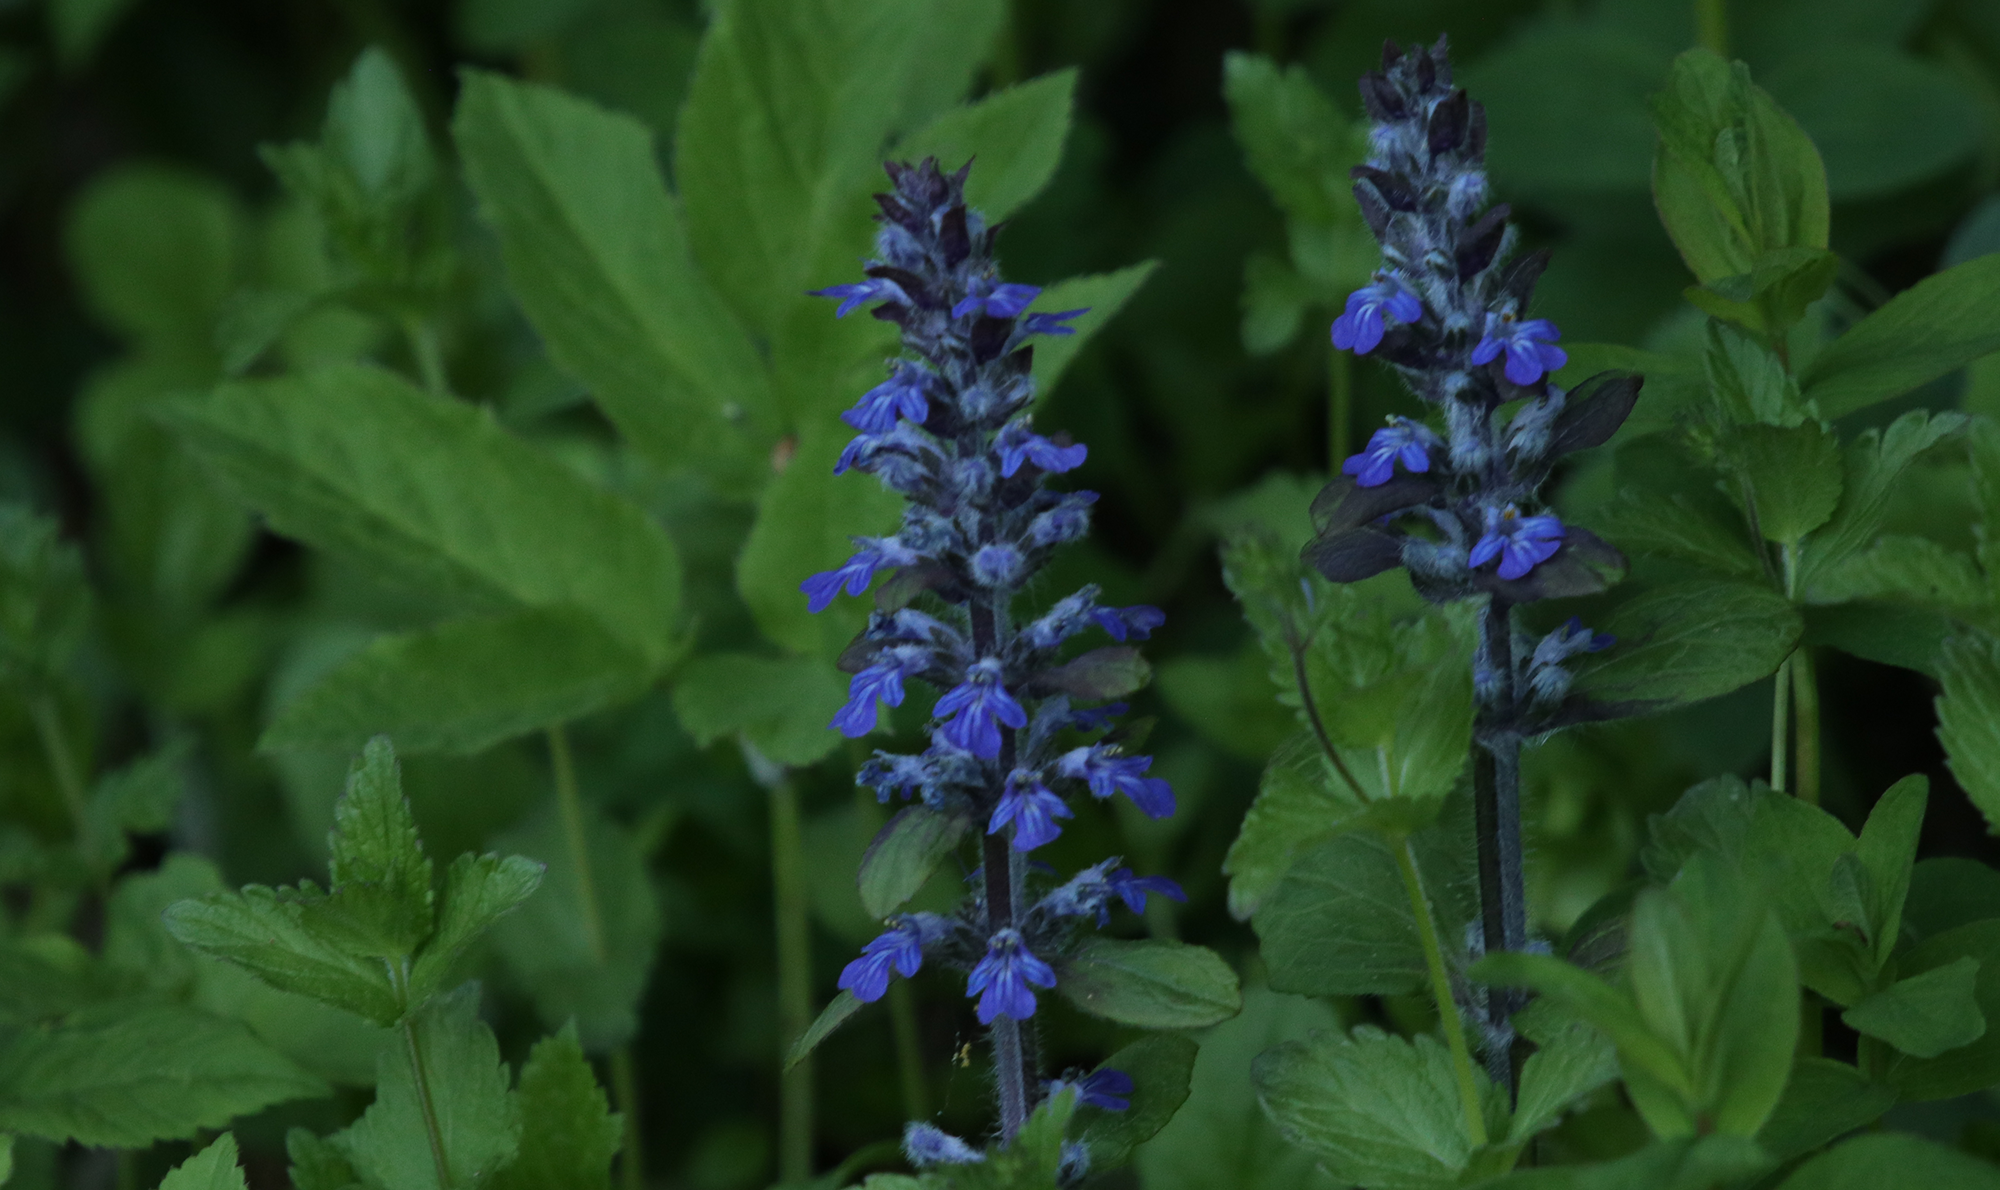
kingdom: Plantae
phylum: Tracheophyta
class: Magnoliopsida
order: Lamiales
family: Lamiaceae
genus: Ajuga
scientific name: Ajuga reptans
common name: Bugle
